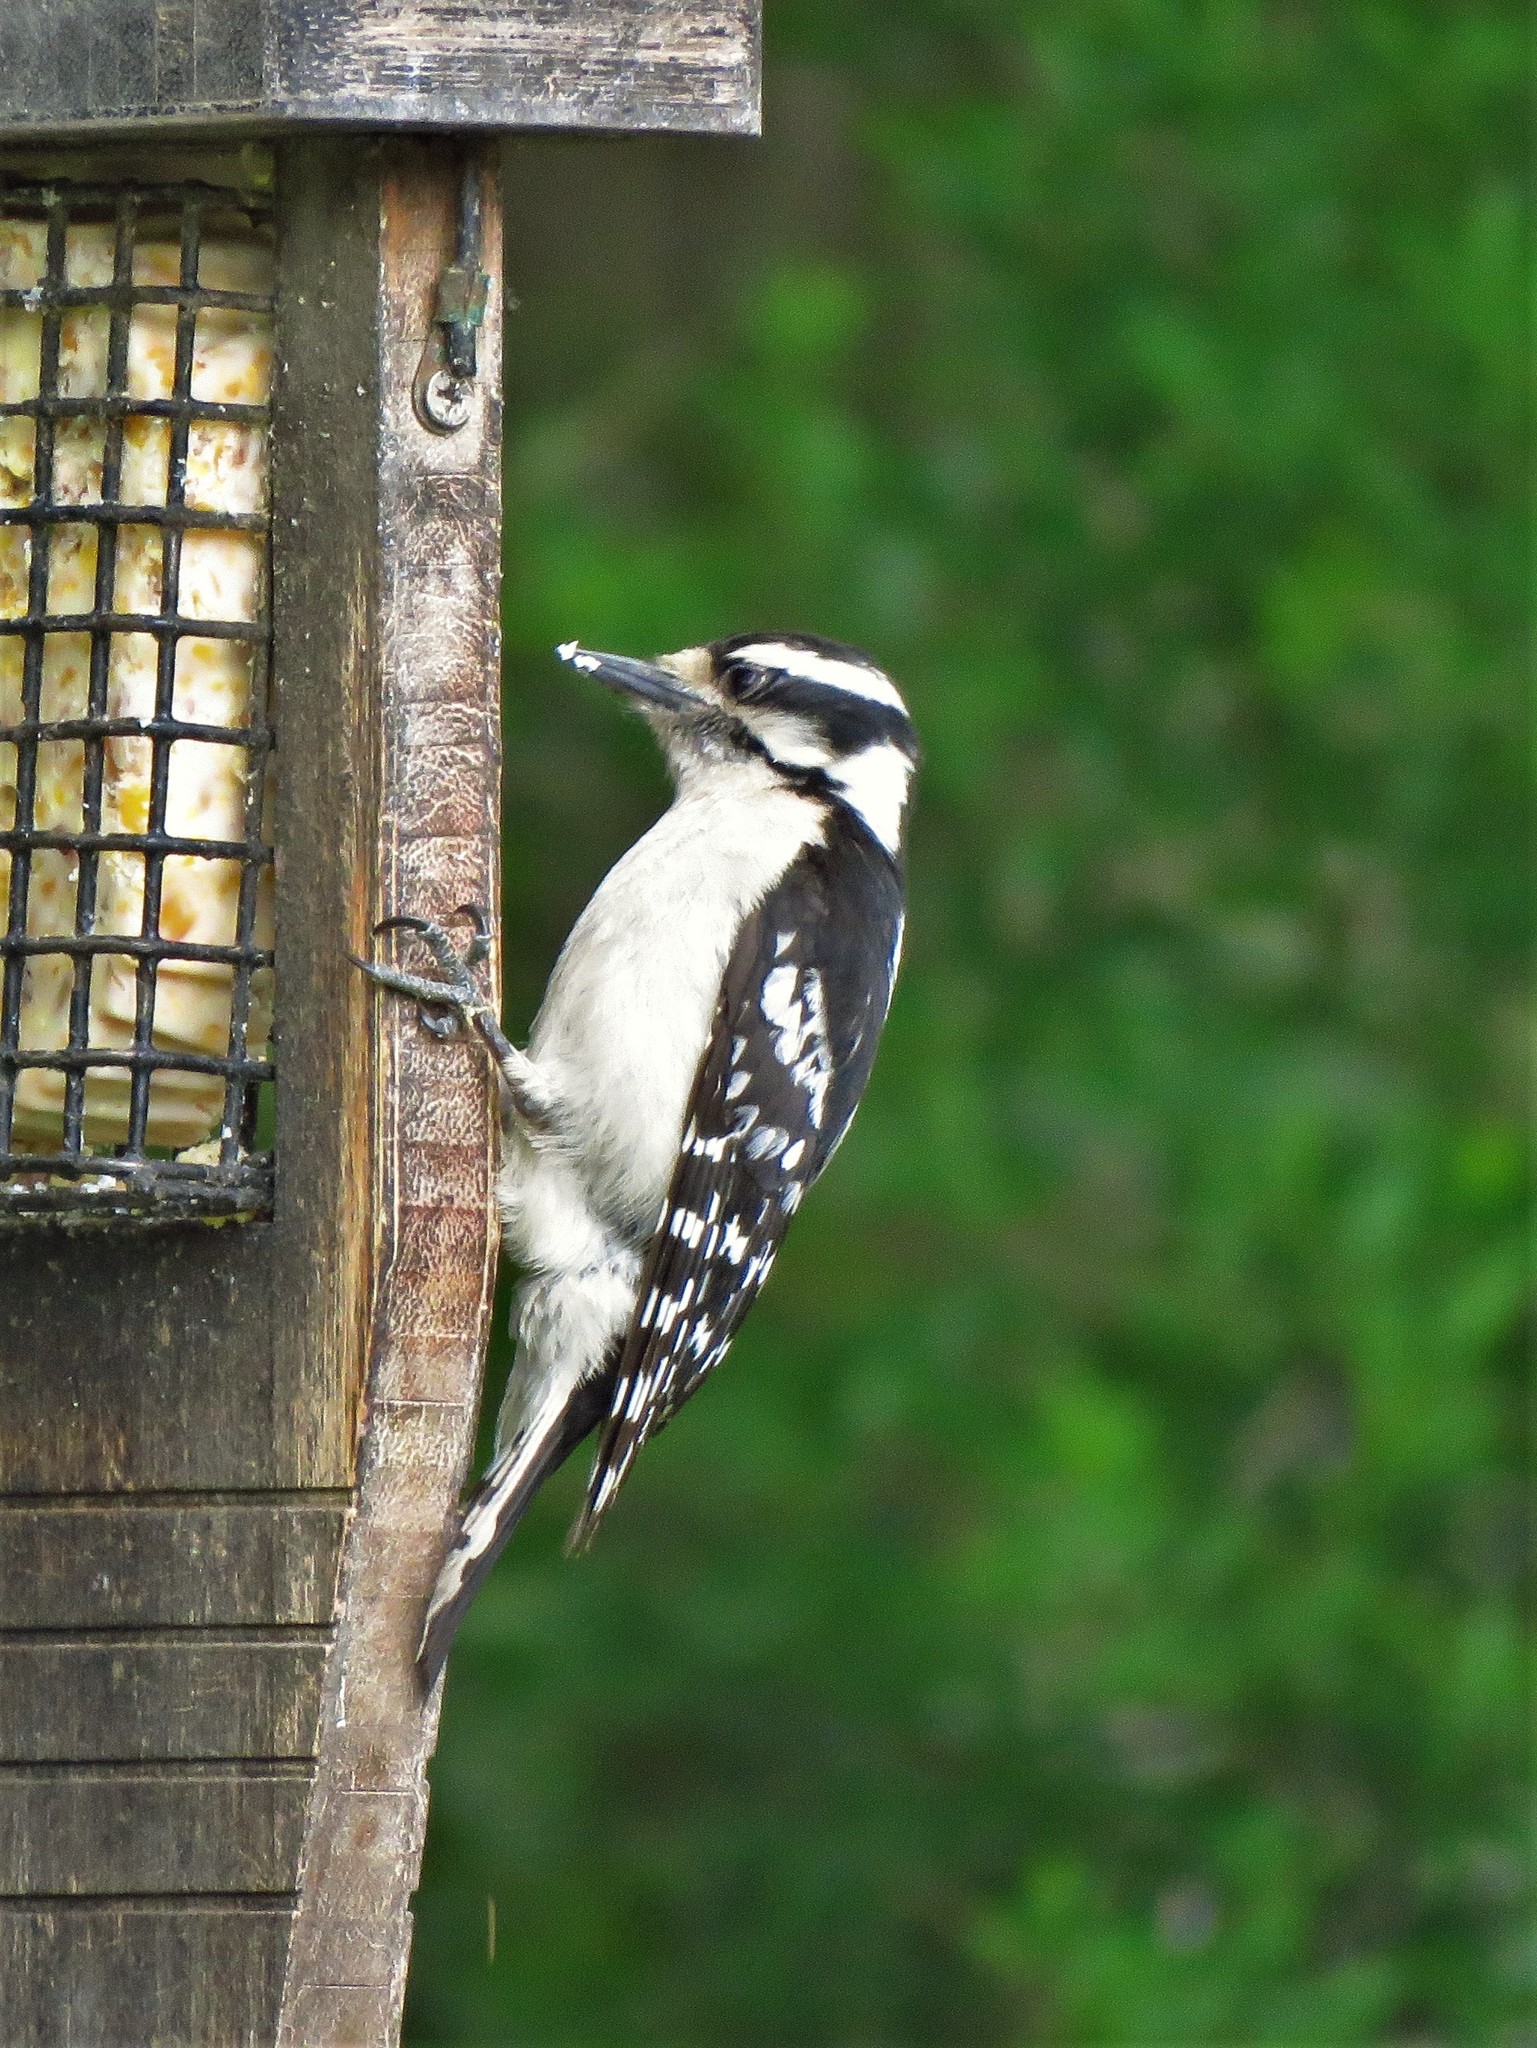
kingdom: Animalia
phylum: Chordata
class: Aves
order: Piciformes
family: Picidae
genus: Dryobates
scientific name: Dryobates pubescens
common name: Downy woodpecker
